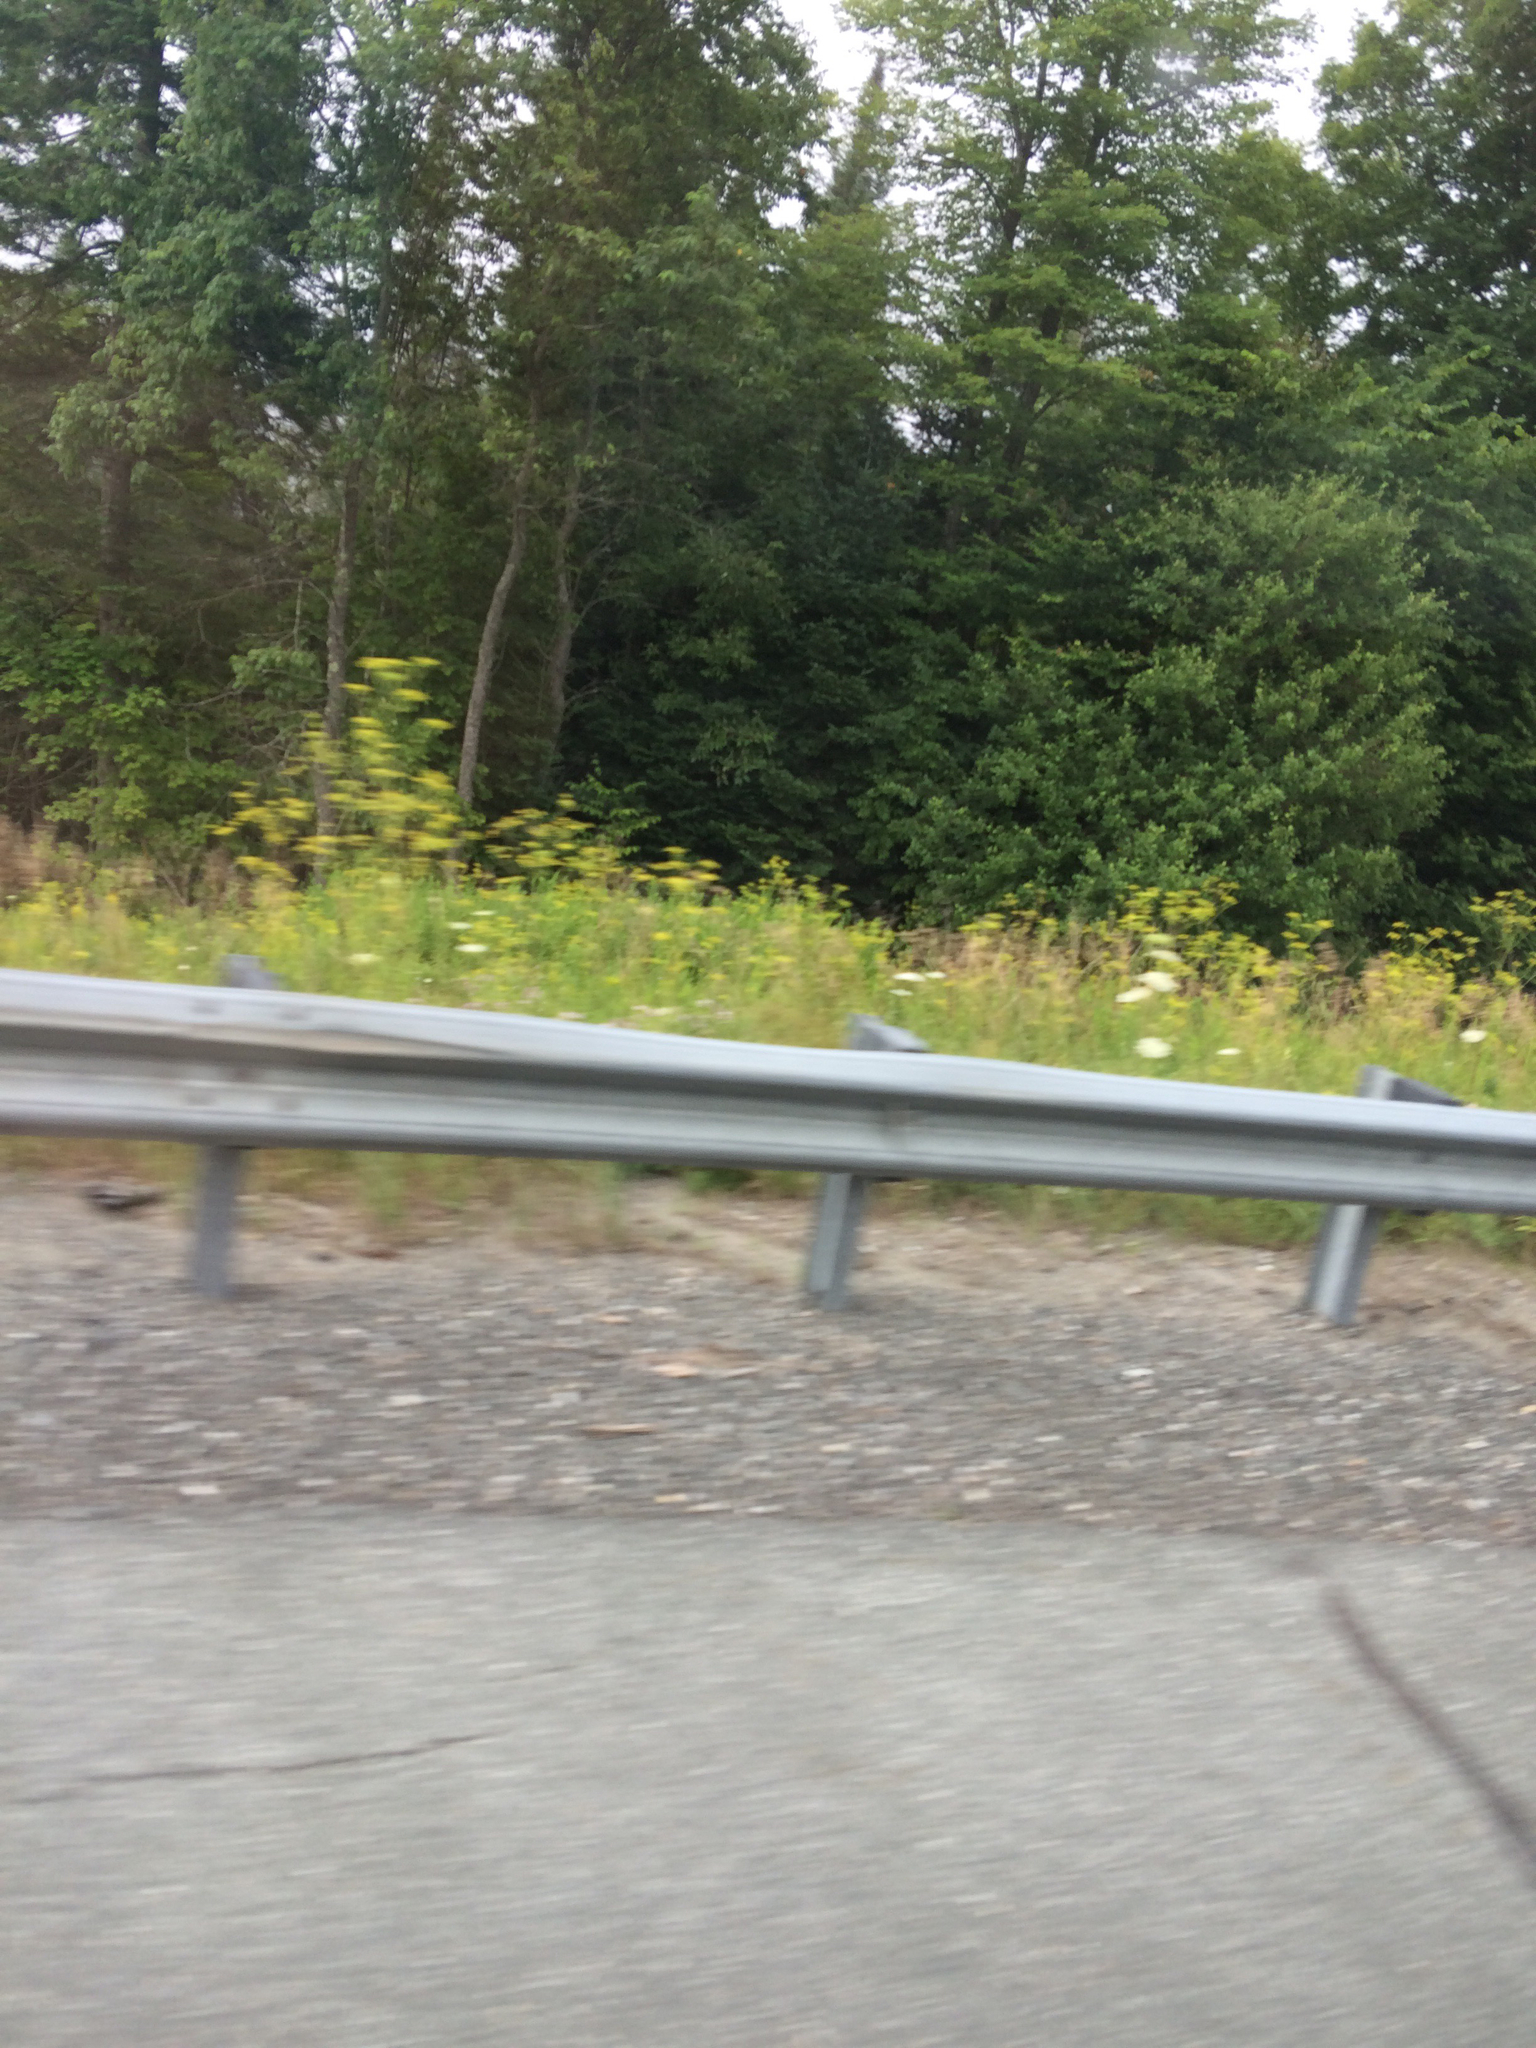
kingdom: Plantae
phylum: Tracheophyta
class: Magnoliopsida
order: Apiales
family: Apiaceae
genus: Pastinaca
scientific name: Pastinaca sativa
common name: Wild parsnip
